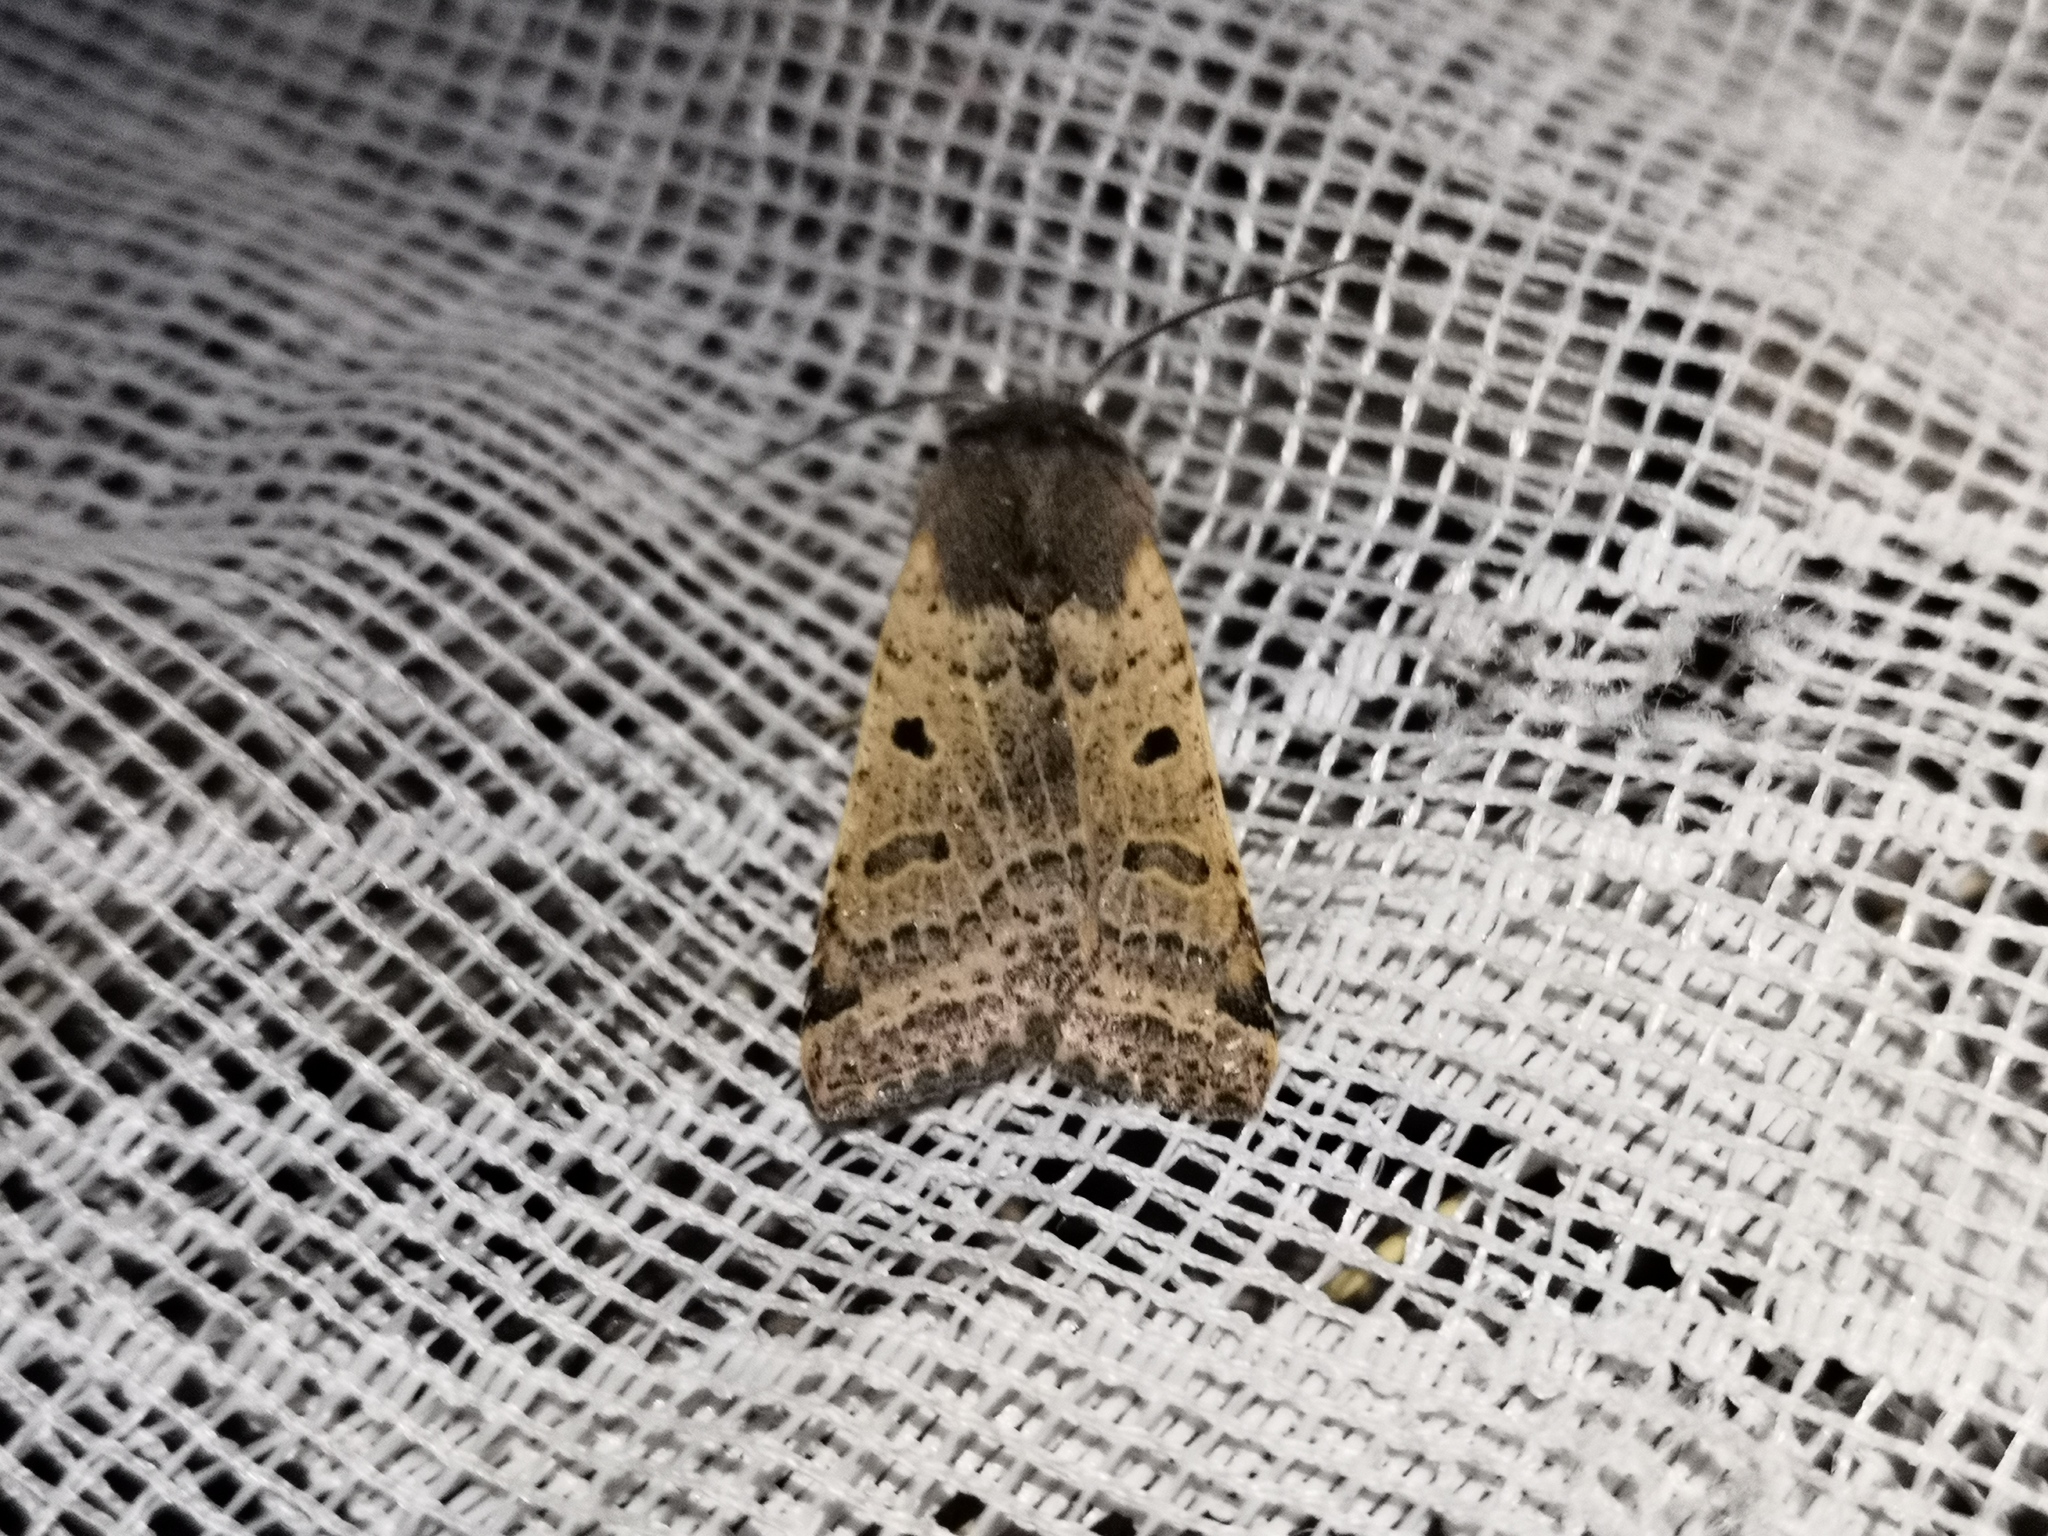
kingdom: Animalia
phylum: Arthropoda
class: Insecta
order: Lepidoptera
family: Noctuidae
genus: Agrochola
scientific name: Agrochola lychnidis
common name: Beaded chestnut
